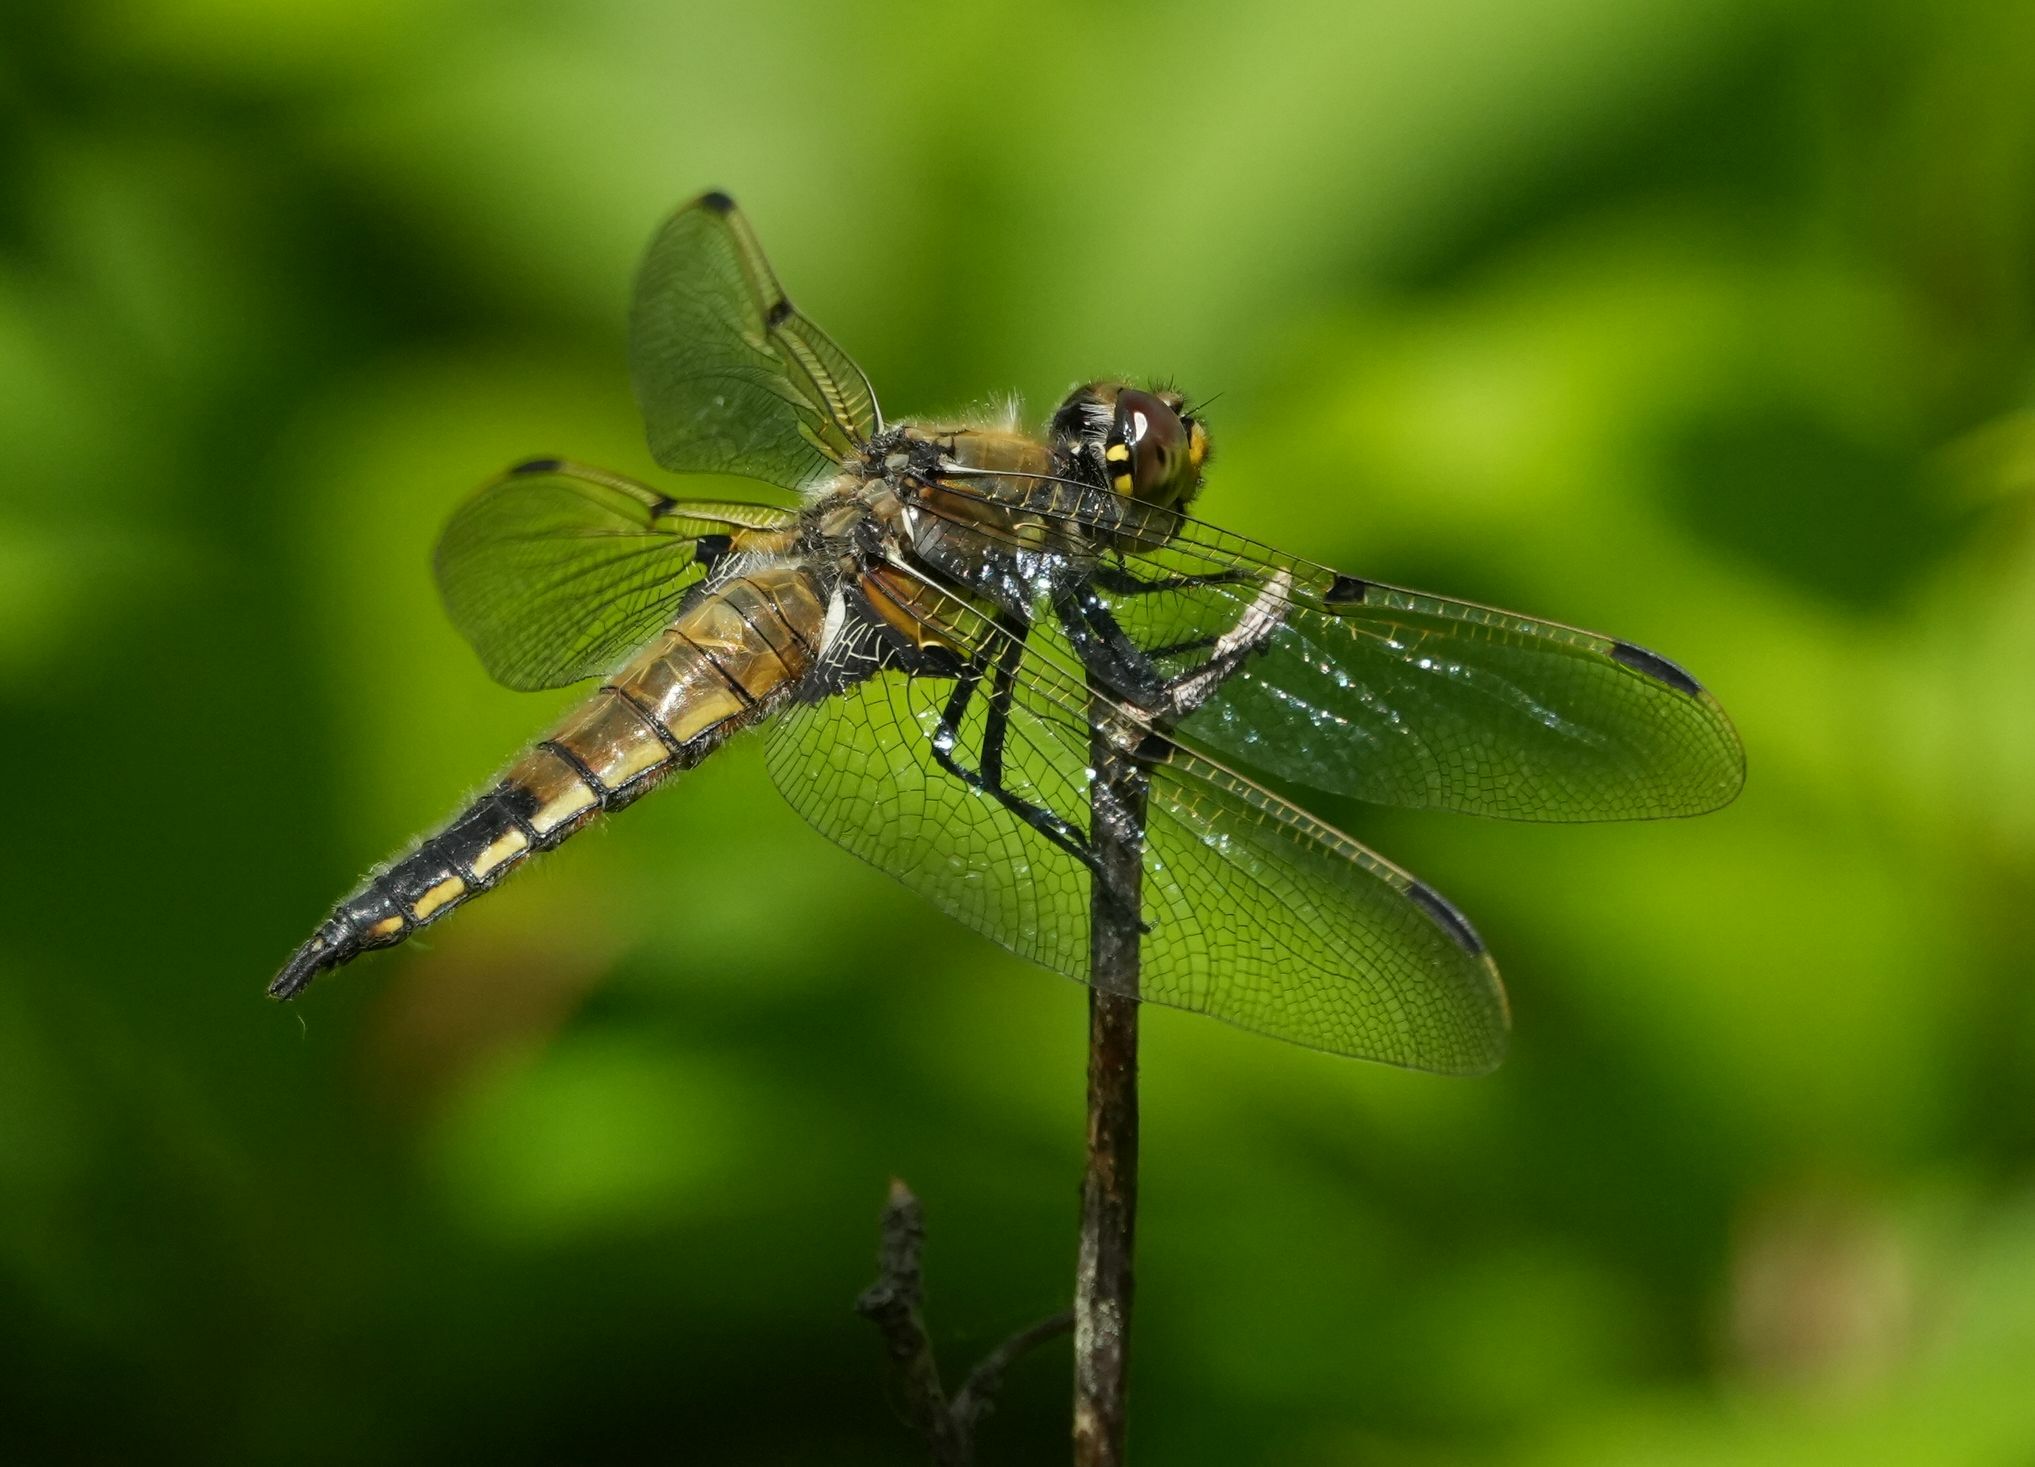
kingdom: Animalia
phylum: Arthropoda
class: Insecta
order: Odonata
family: Libellulidae
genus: Libellula
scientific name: Libellula quadrimaculata
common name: Four-spotted chaser
